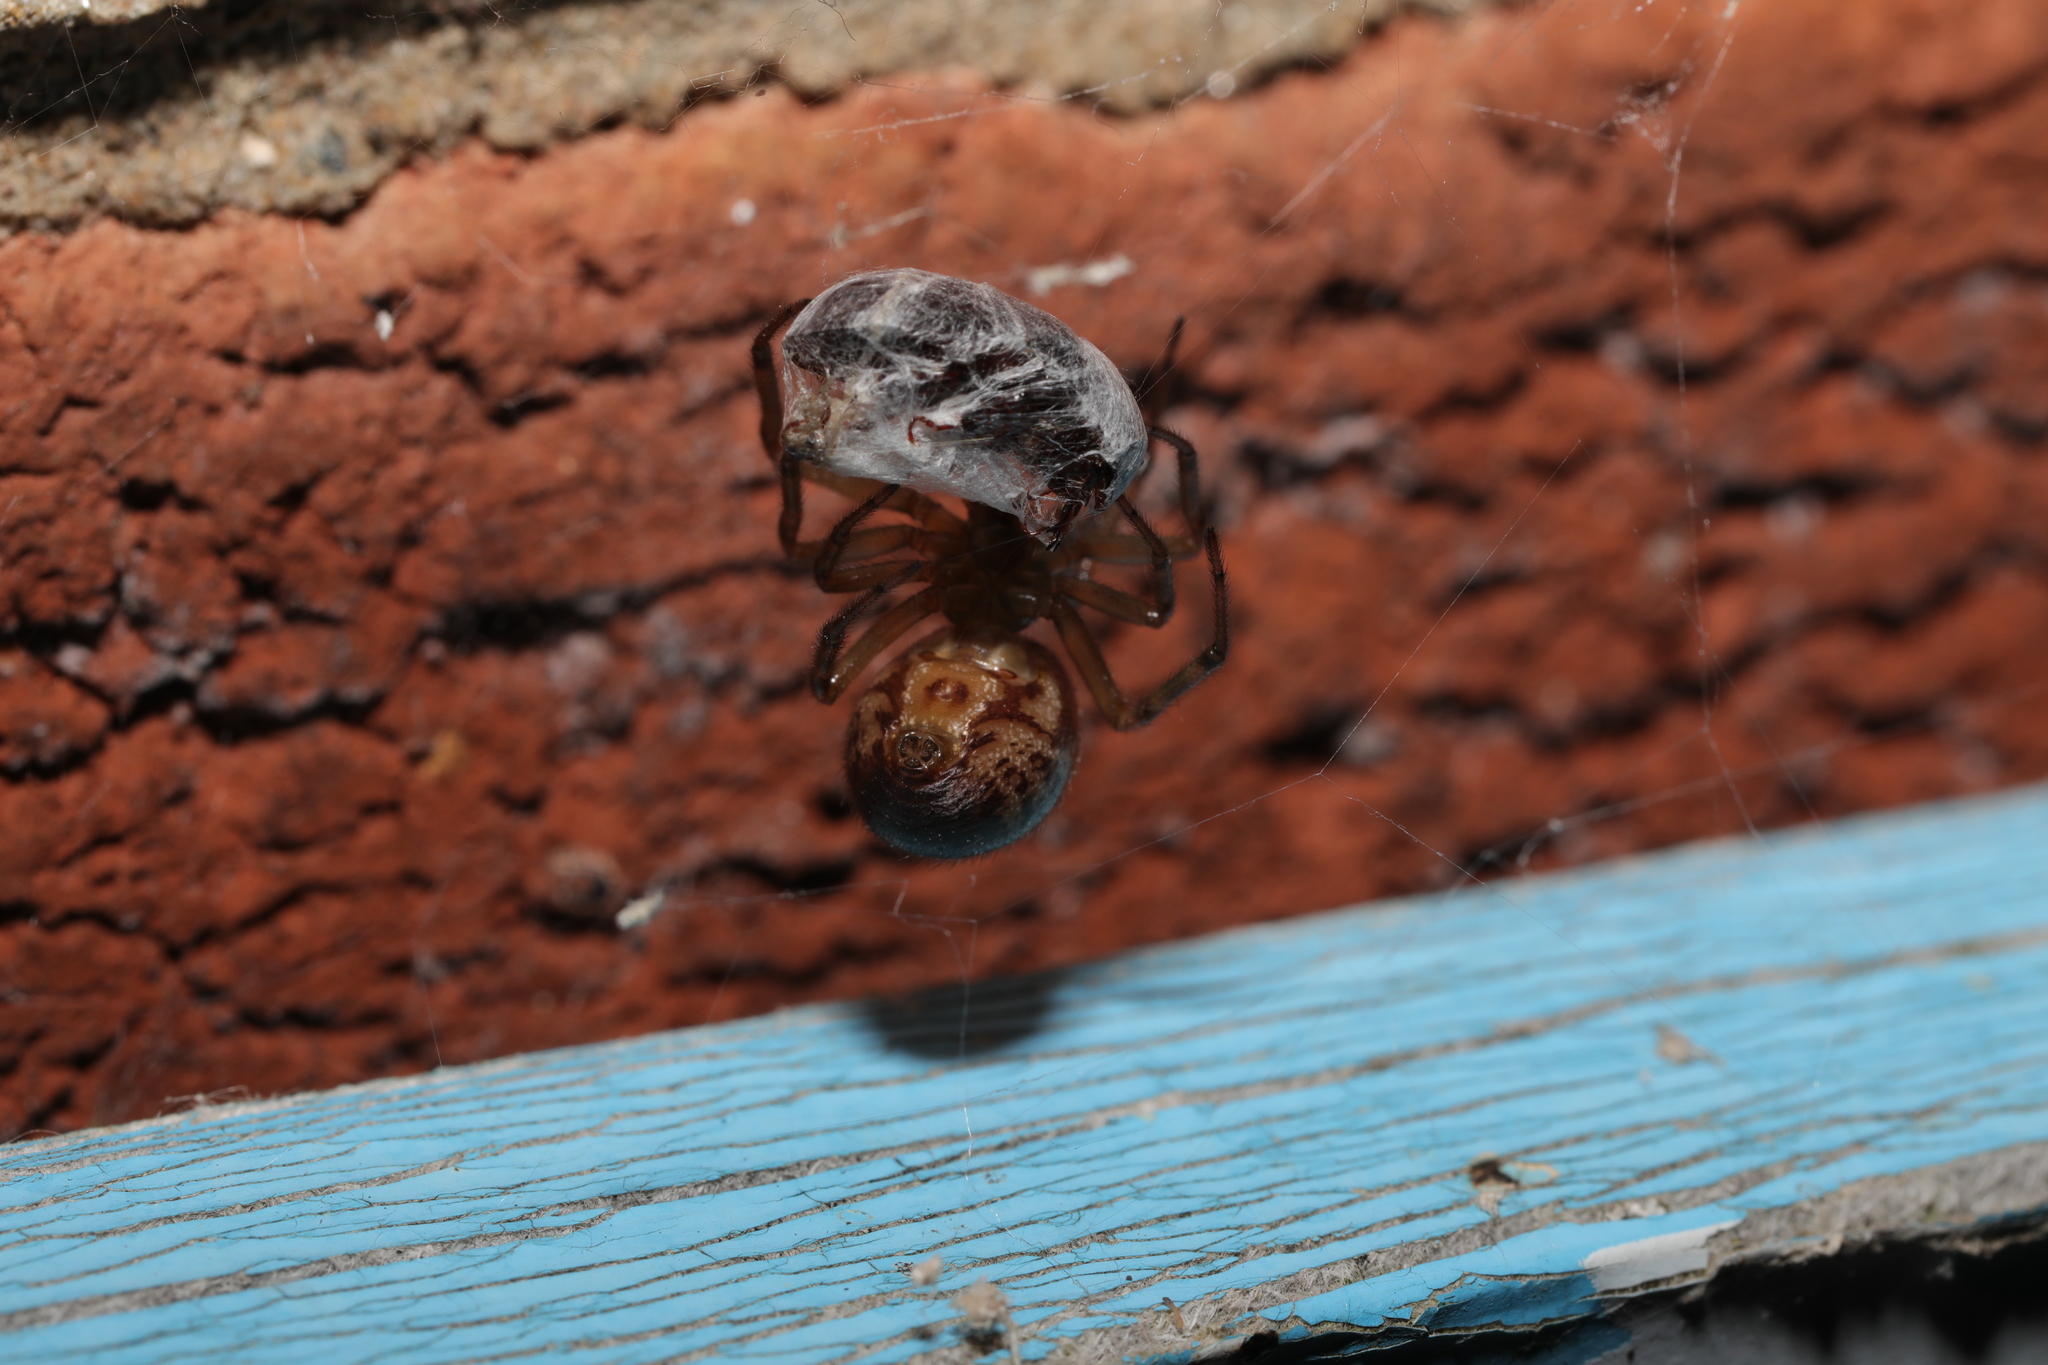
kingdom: Animalia
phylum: Arthropoda
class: Arachnida
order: Araneae
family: Theridiidae
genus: Steatoda
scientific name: Steatoda nobilis
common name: Cobweb weaver
